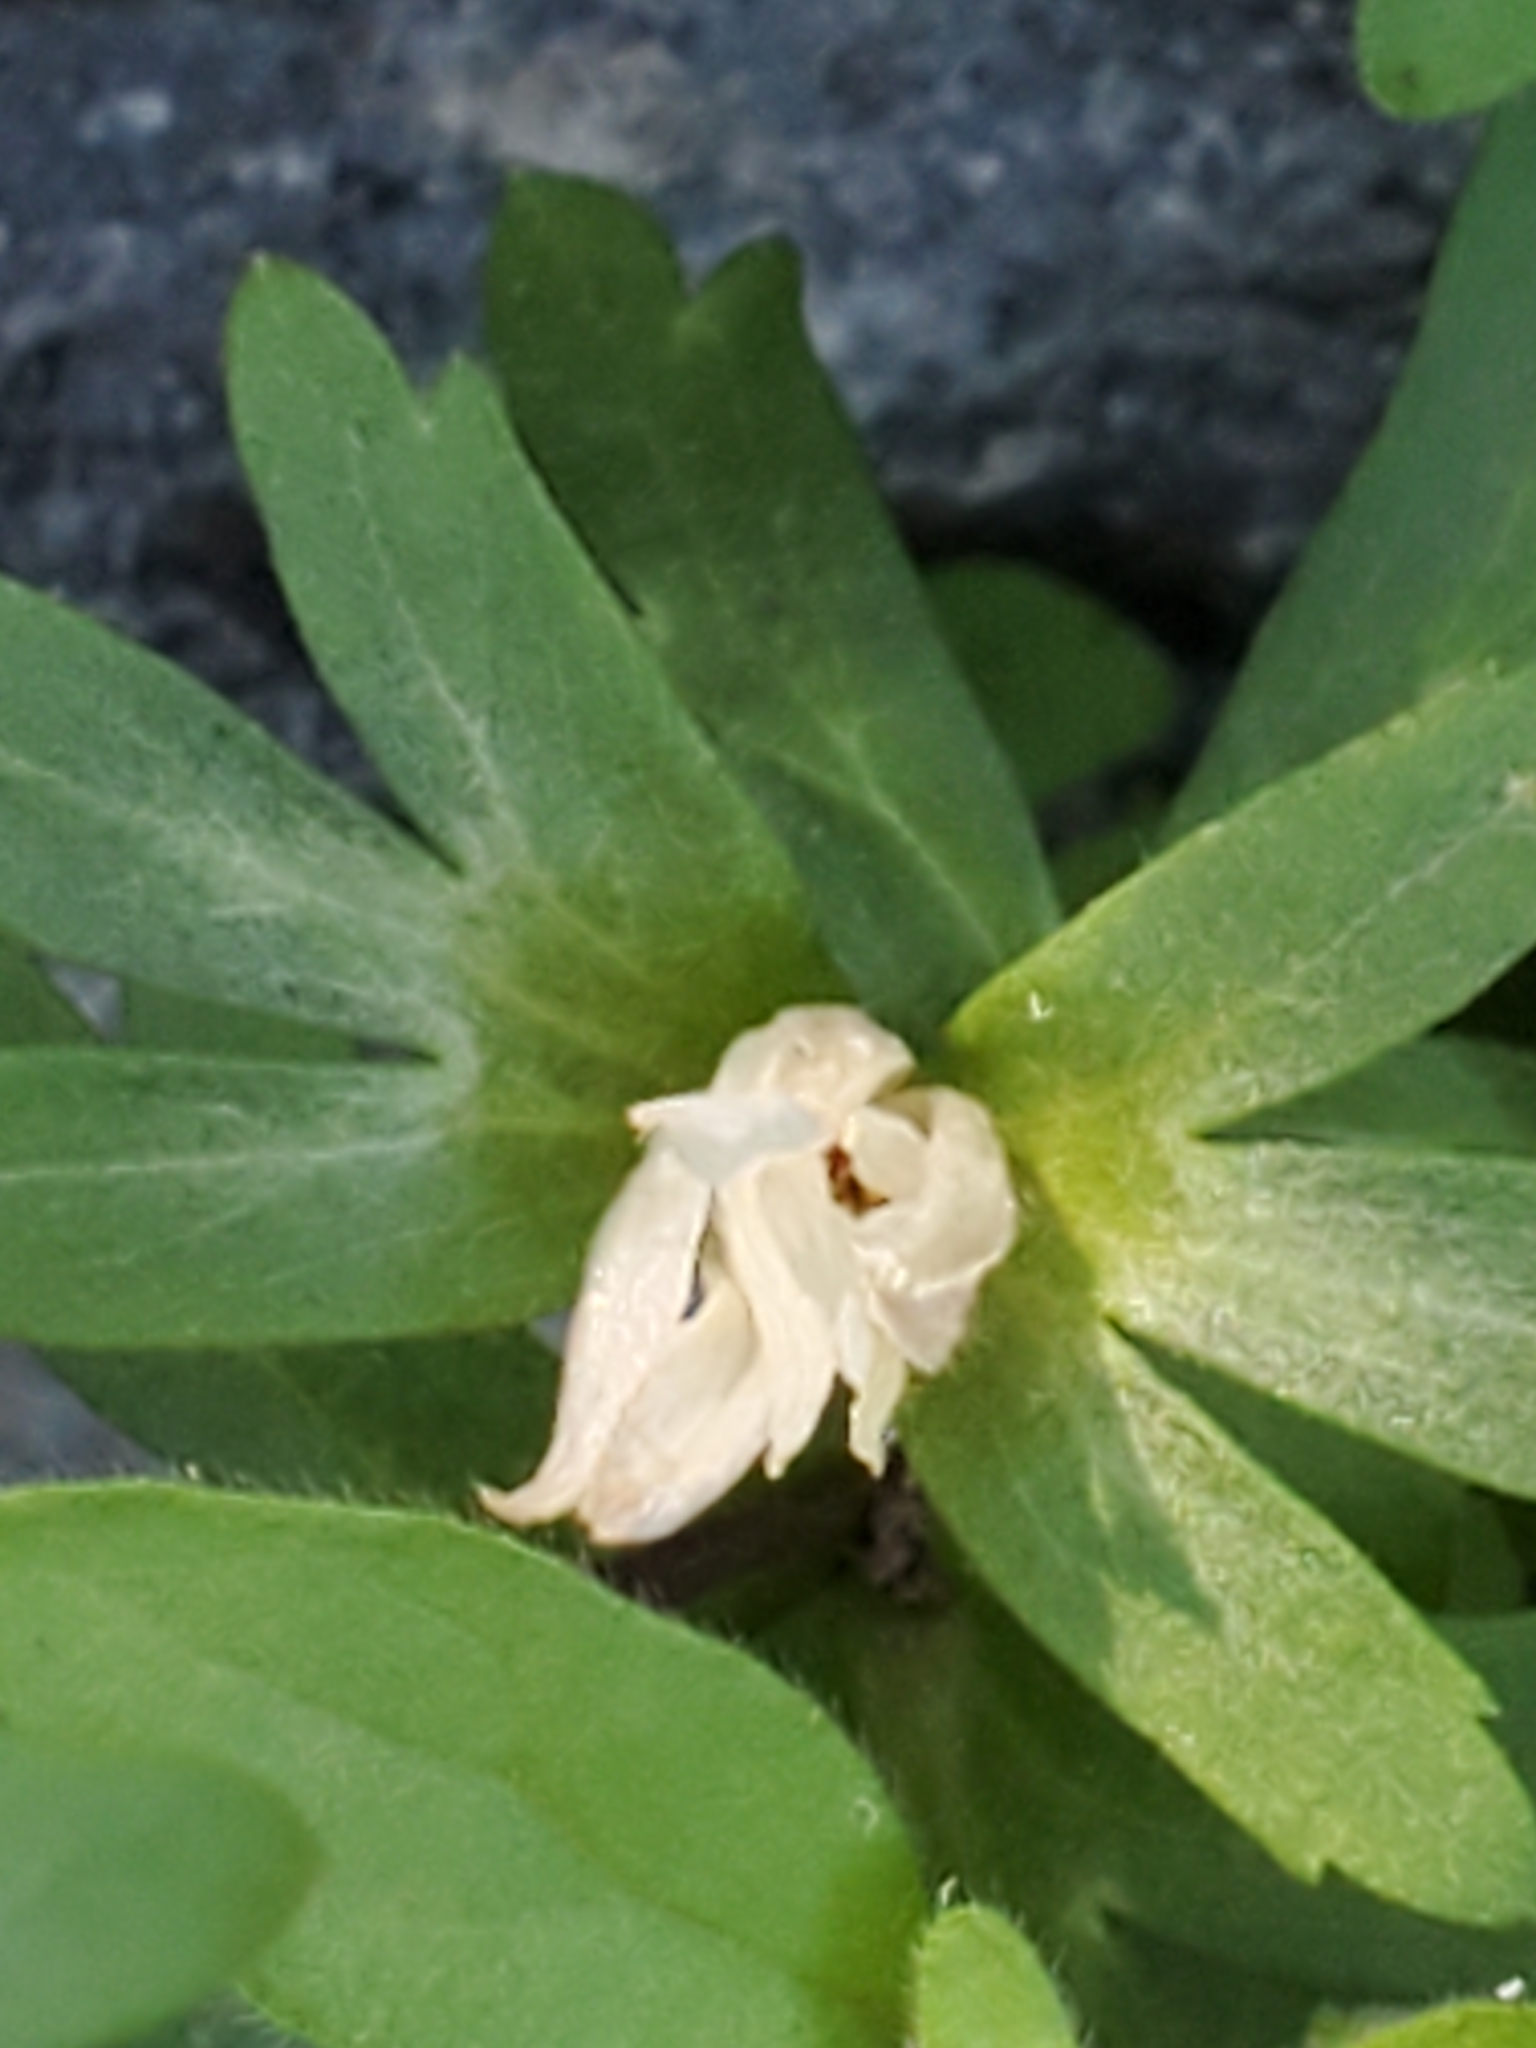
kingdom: Plantae
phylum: Tracheophyta
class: Magnoliopsida
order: Ranunculales
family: Ranunculaceae
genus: Anemone
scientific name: Anemone edwardsiana
